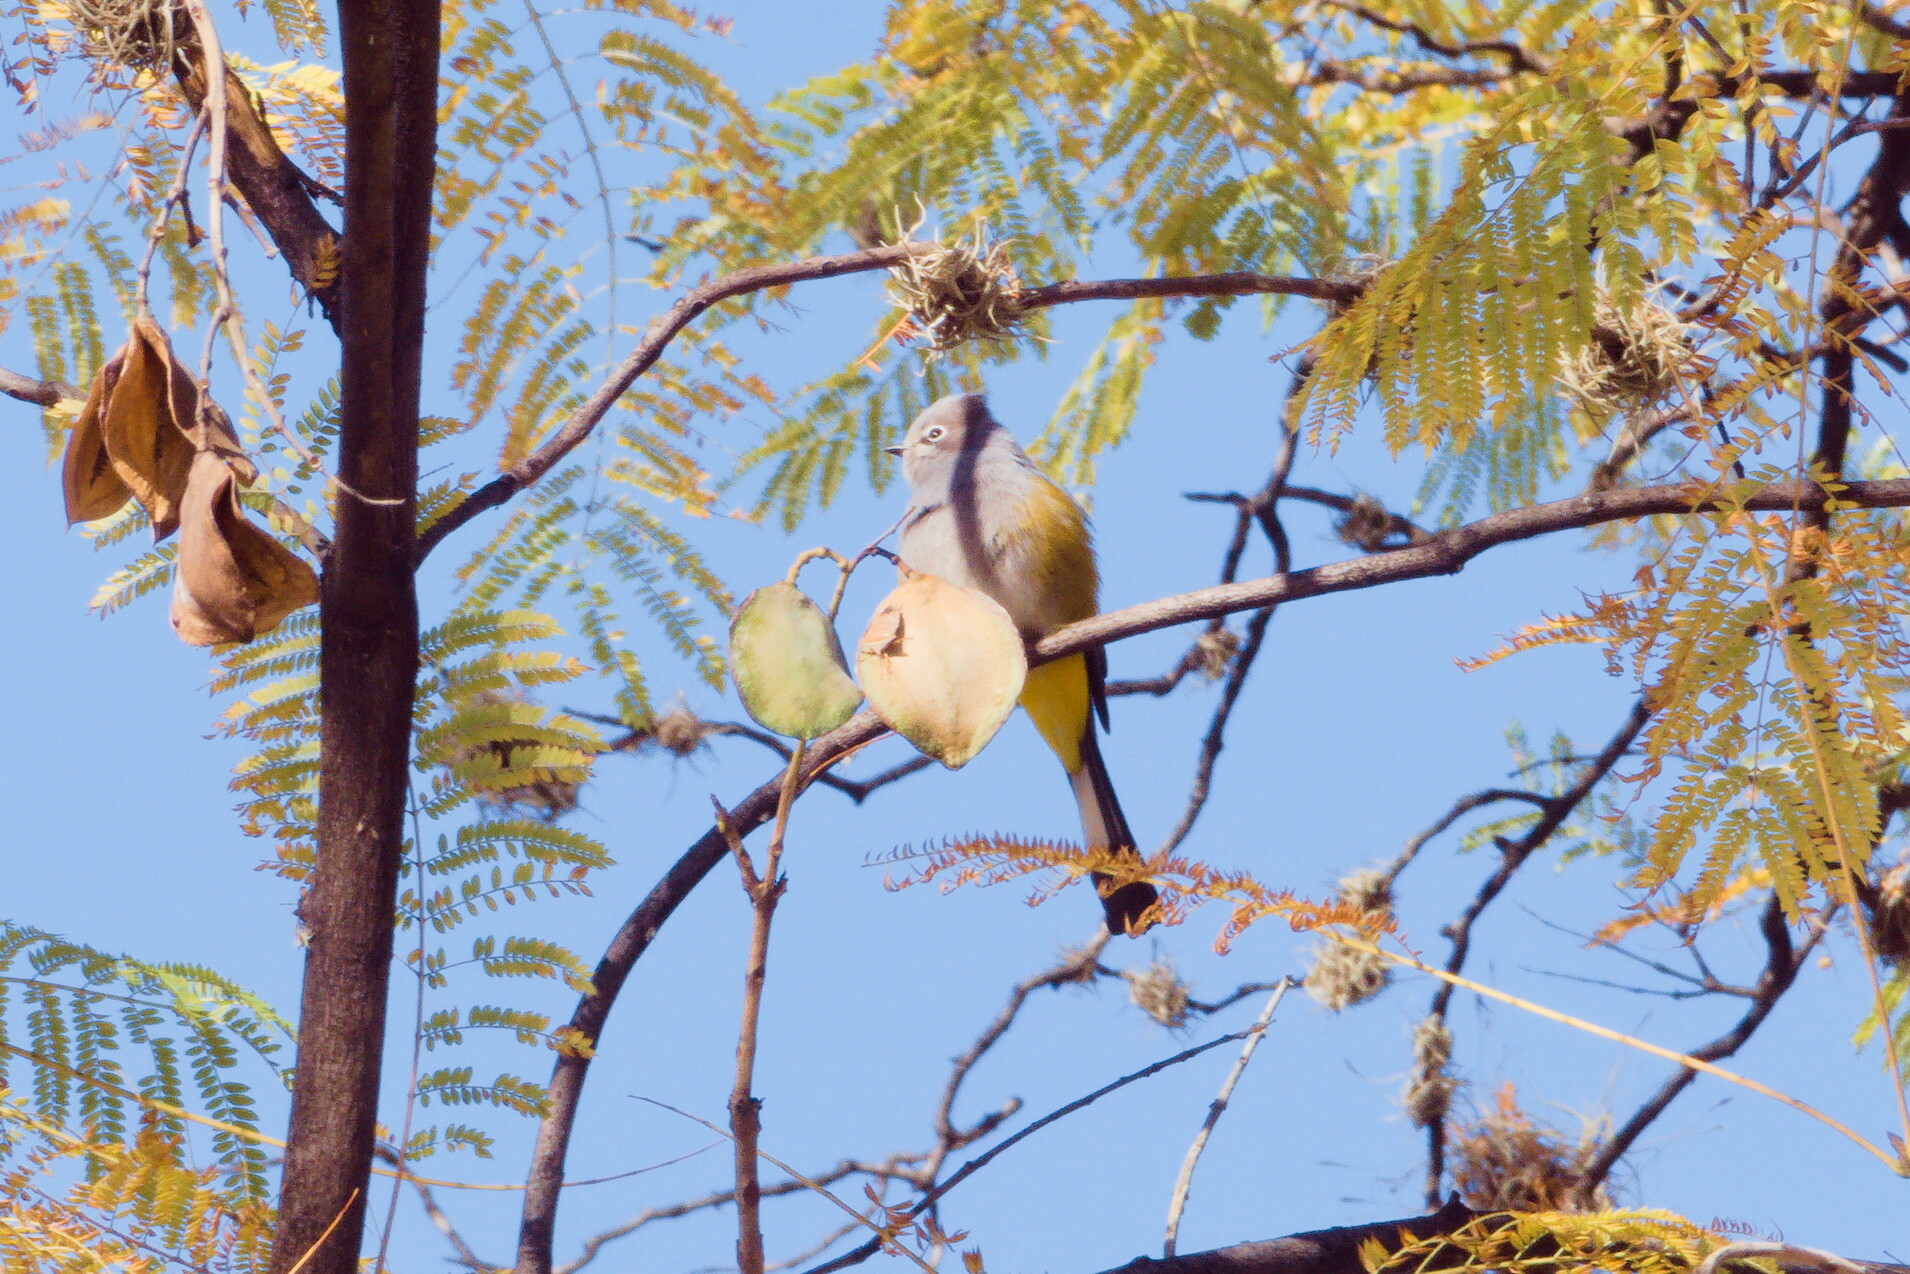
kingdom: Animalia
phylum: Chordata
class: Aves
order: Passeriformes
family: Ptilogonatidae
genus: Ptilogonys
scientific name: Ptilogonys cinereus
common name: Gray silky-flycatcher
